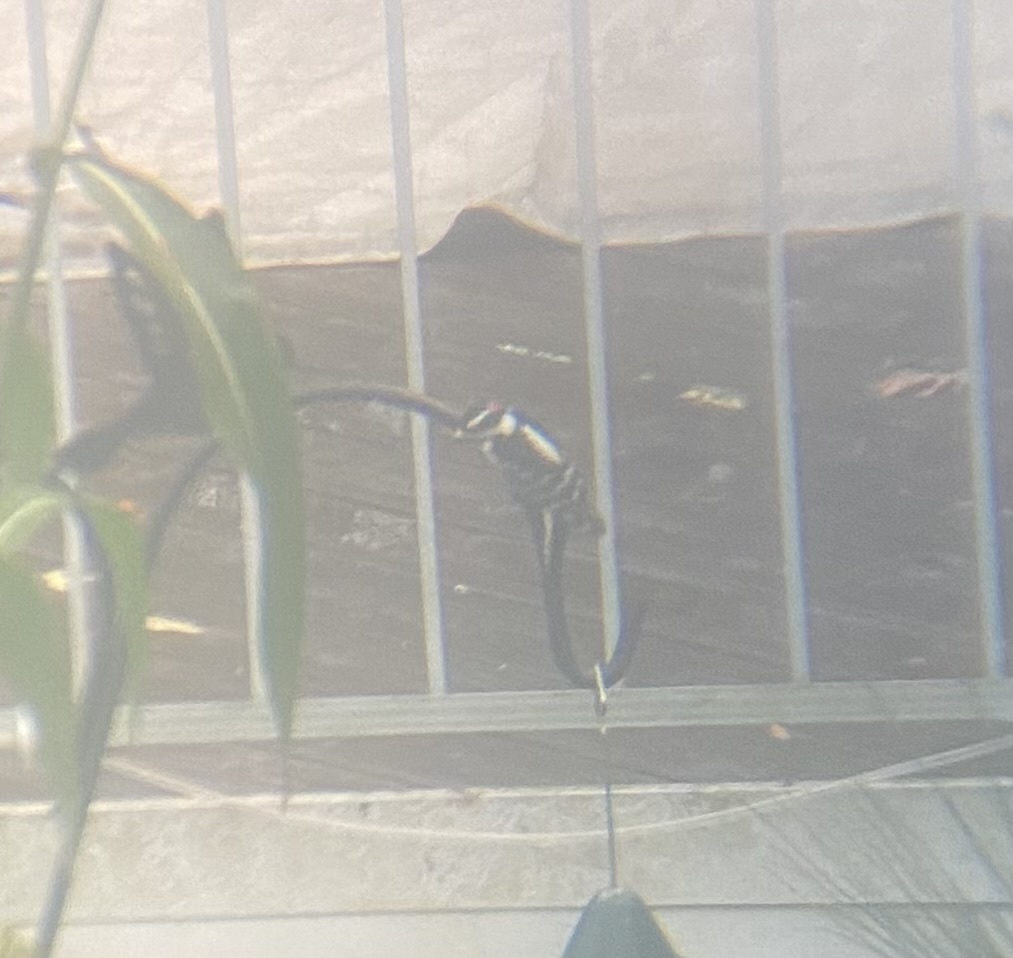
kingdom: Animalia
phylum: Chordata
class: Aves
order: Piciformes
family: Picidae
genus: Dryobates
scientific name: Dryobates pubescens
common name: Downy woodpecker
